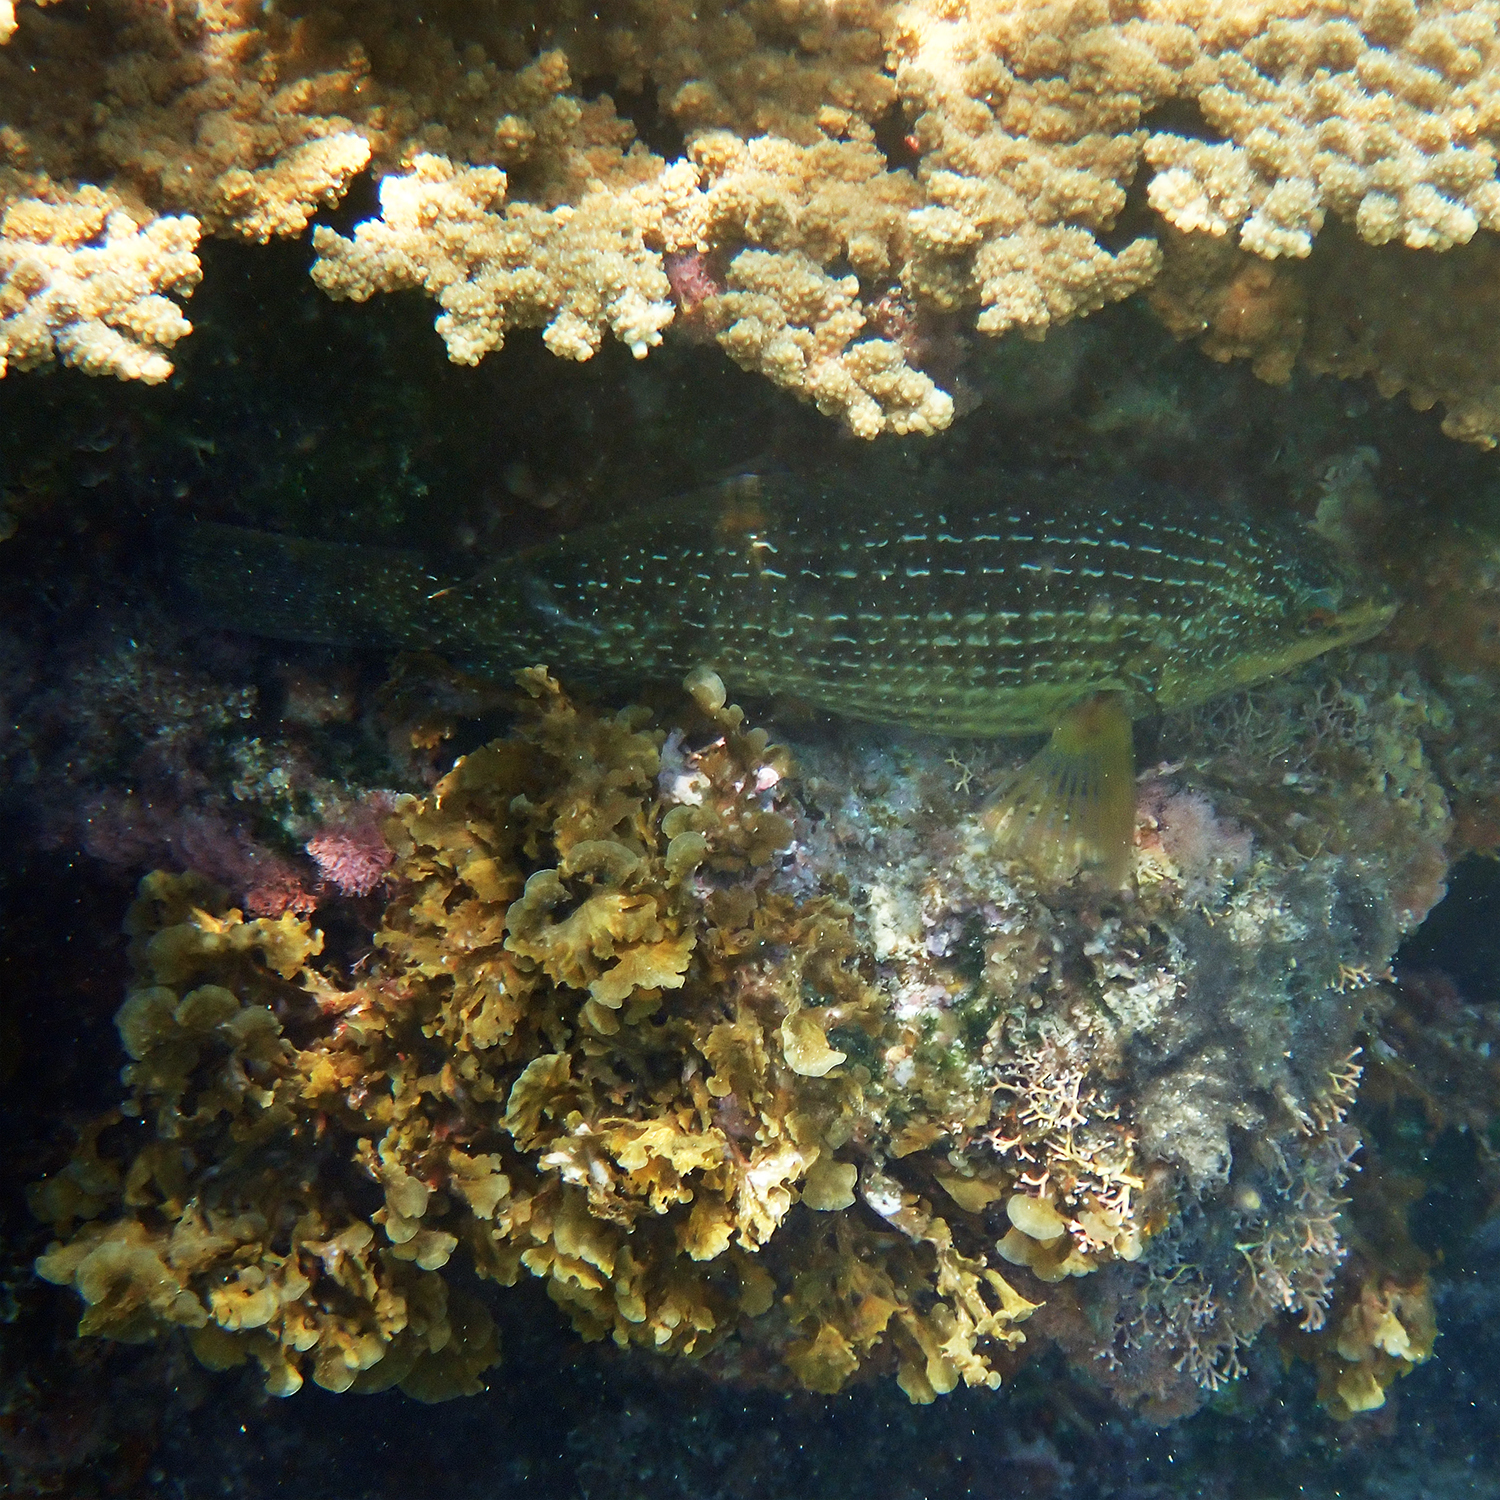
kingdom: Animalia
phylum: Chordata
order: Perciformes
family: Labridae
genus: Notolabrus
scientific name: Notolabrus inscriptus
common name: Green wrasse
